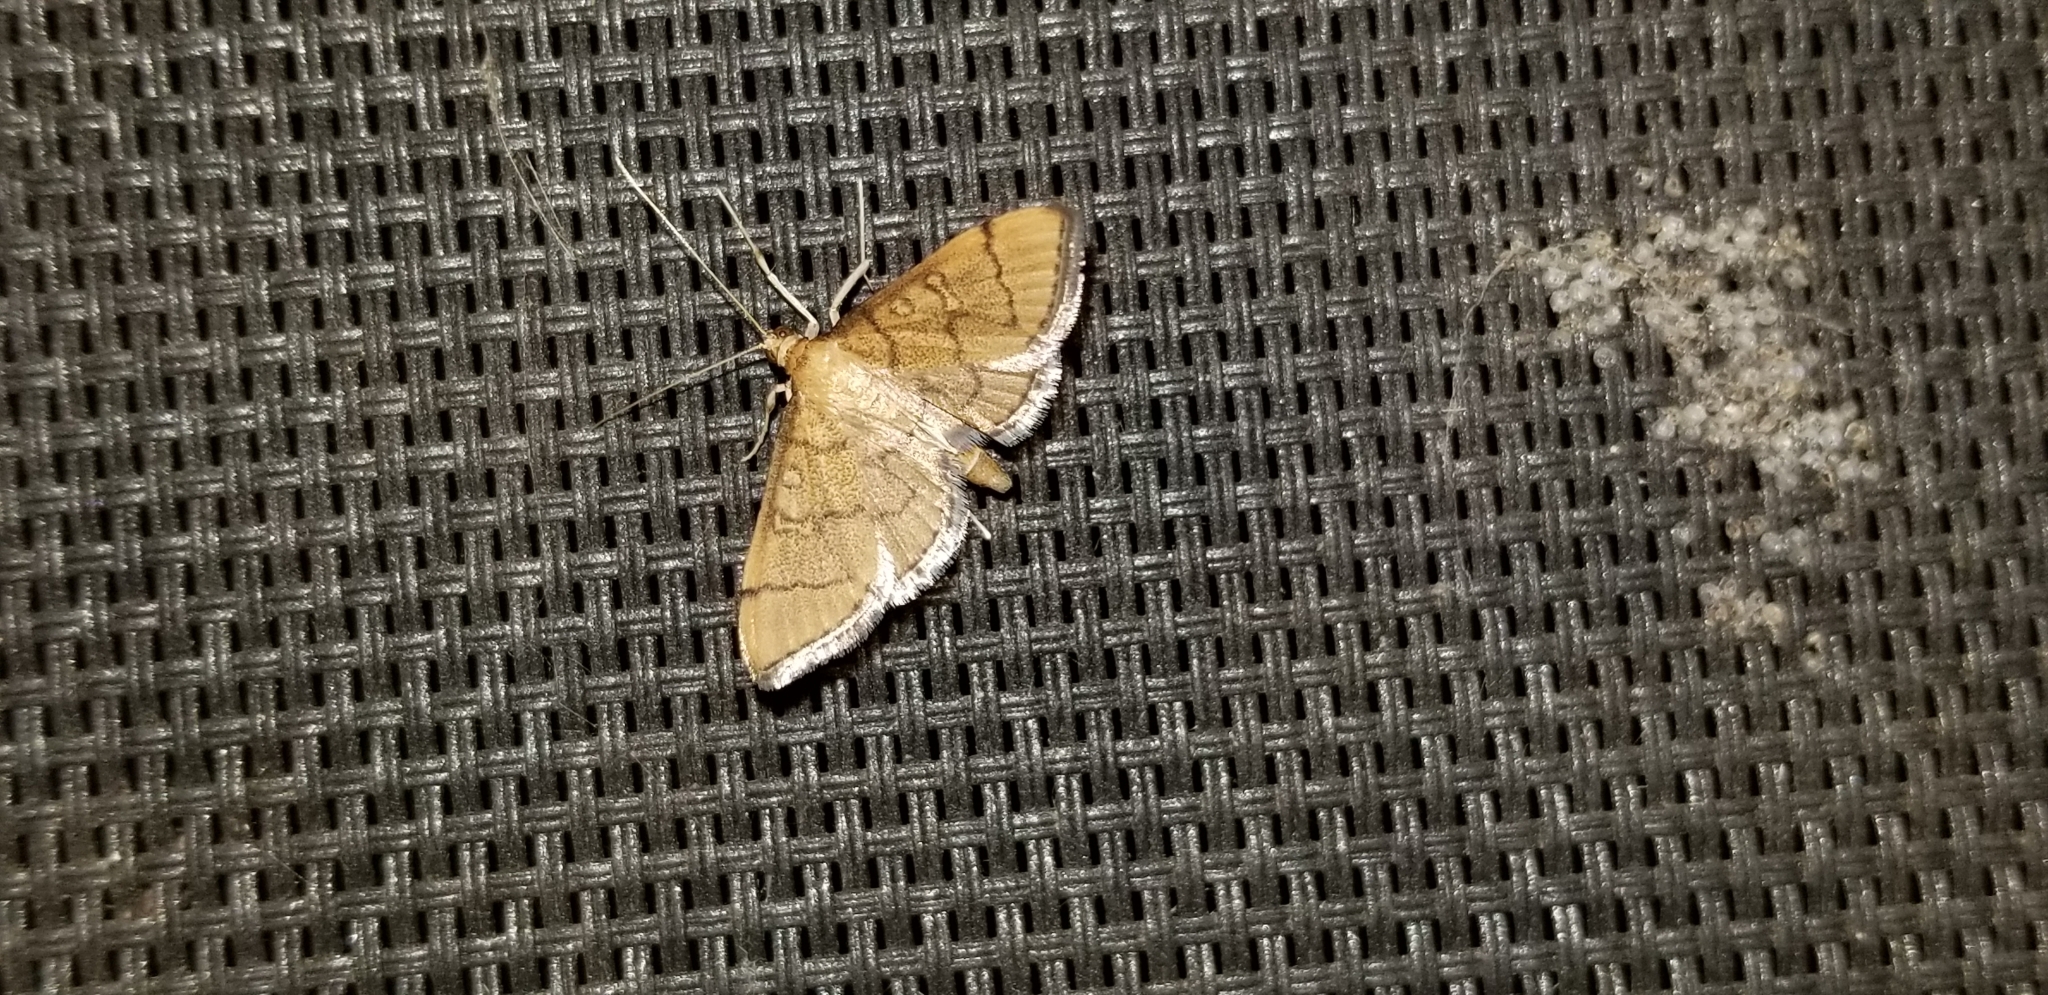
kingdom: Animalia
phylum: Arthropoda
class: Insecta
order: Lepidoptera
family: Crambidae
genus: Lamprosema
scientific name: Lamprosema Blepharomastix ranalis
